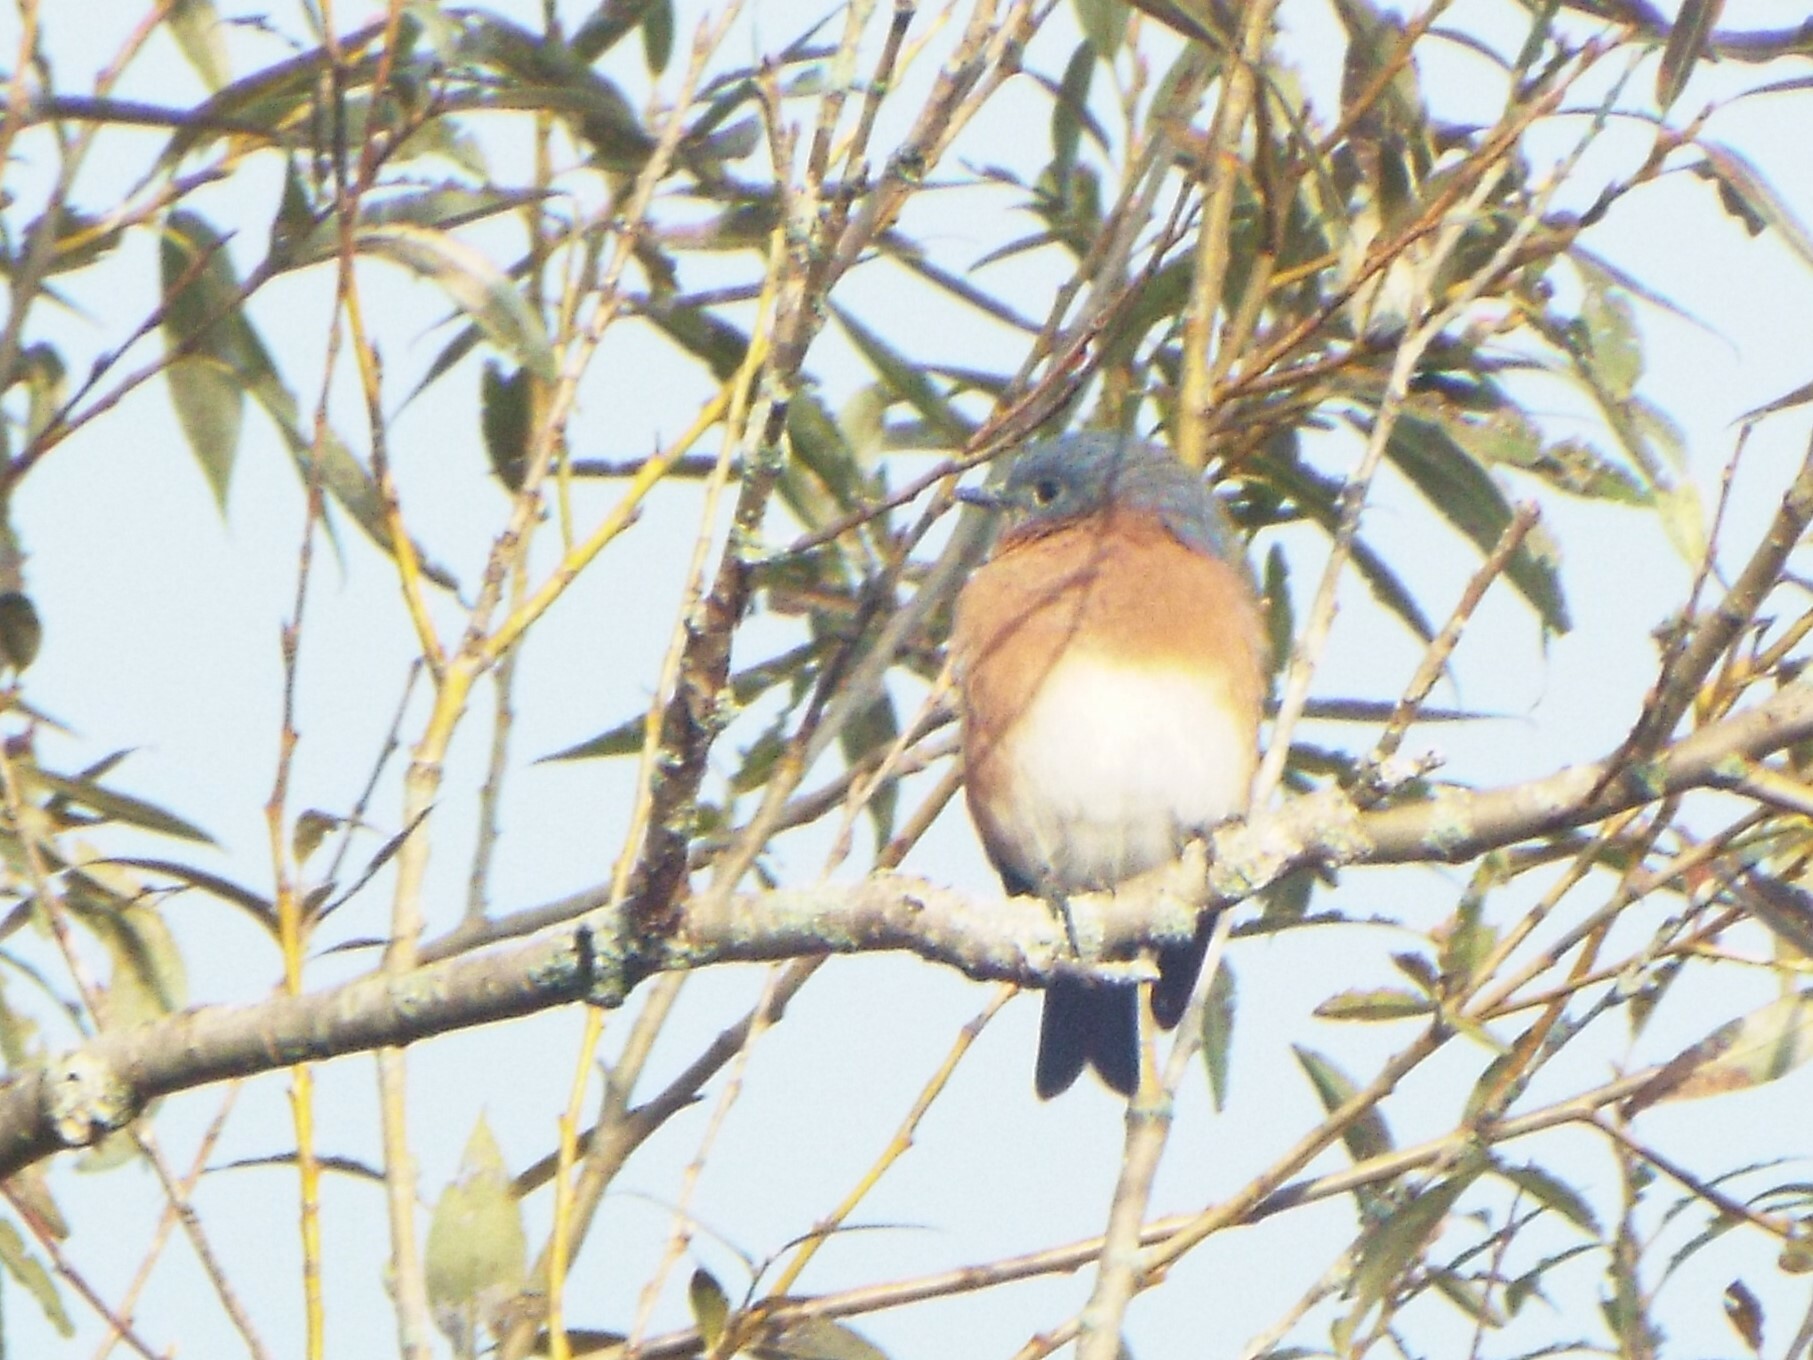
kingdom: Animalia
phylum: Chordata
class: Aves
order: Passeriformes
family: Turdidae
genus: Sialia
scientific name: Sialia sialis
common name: Eastern bluebird
